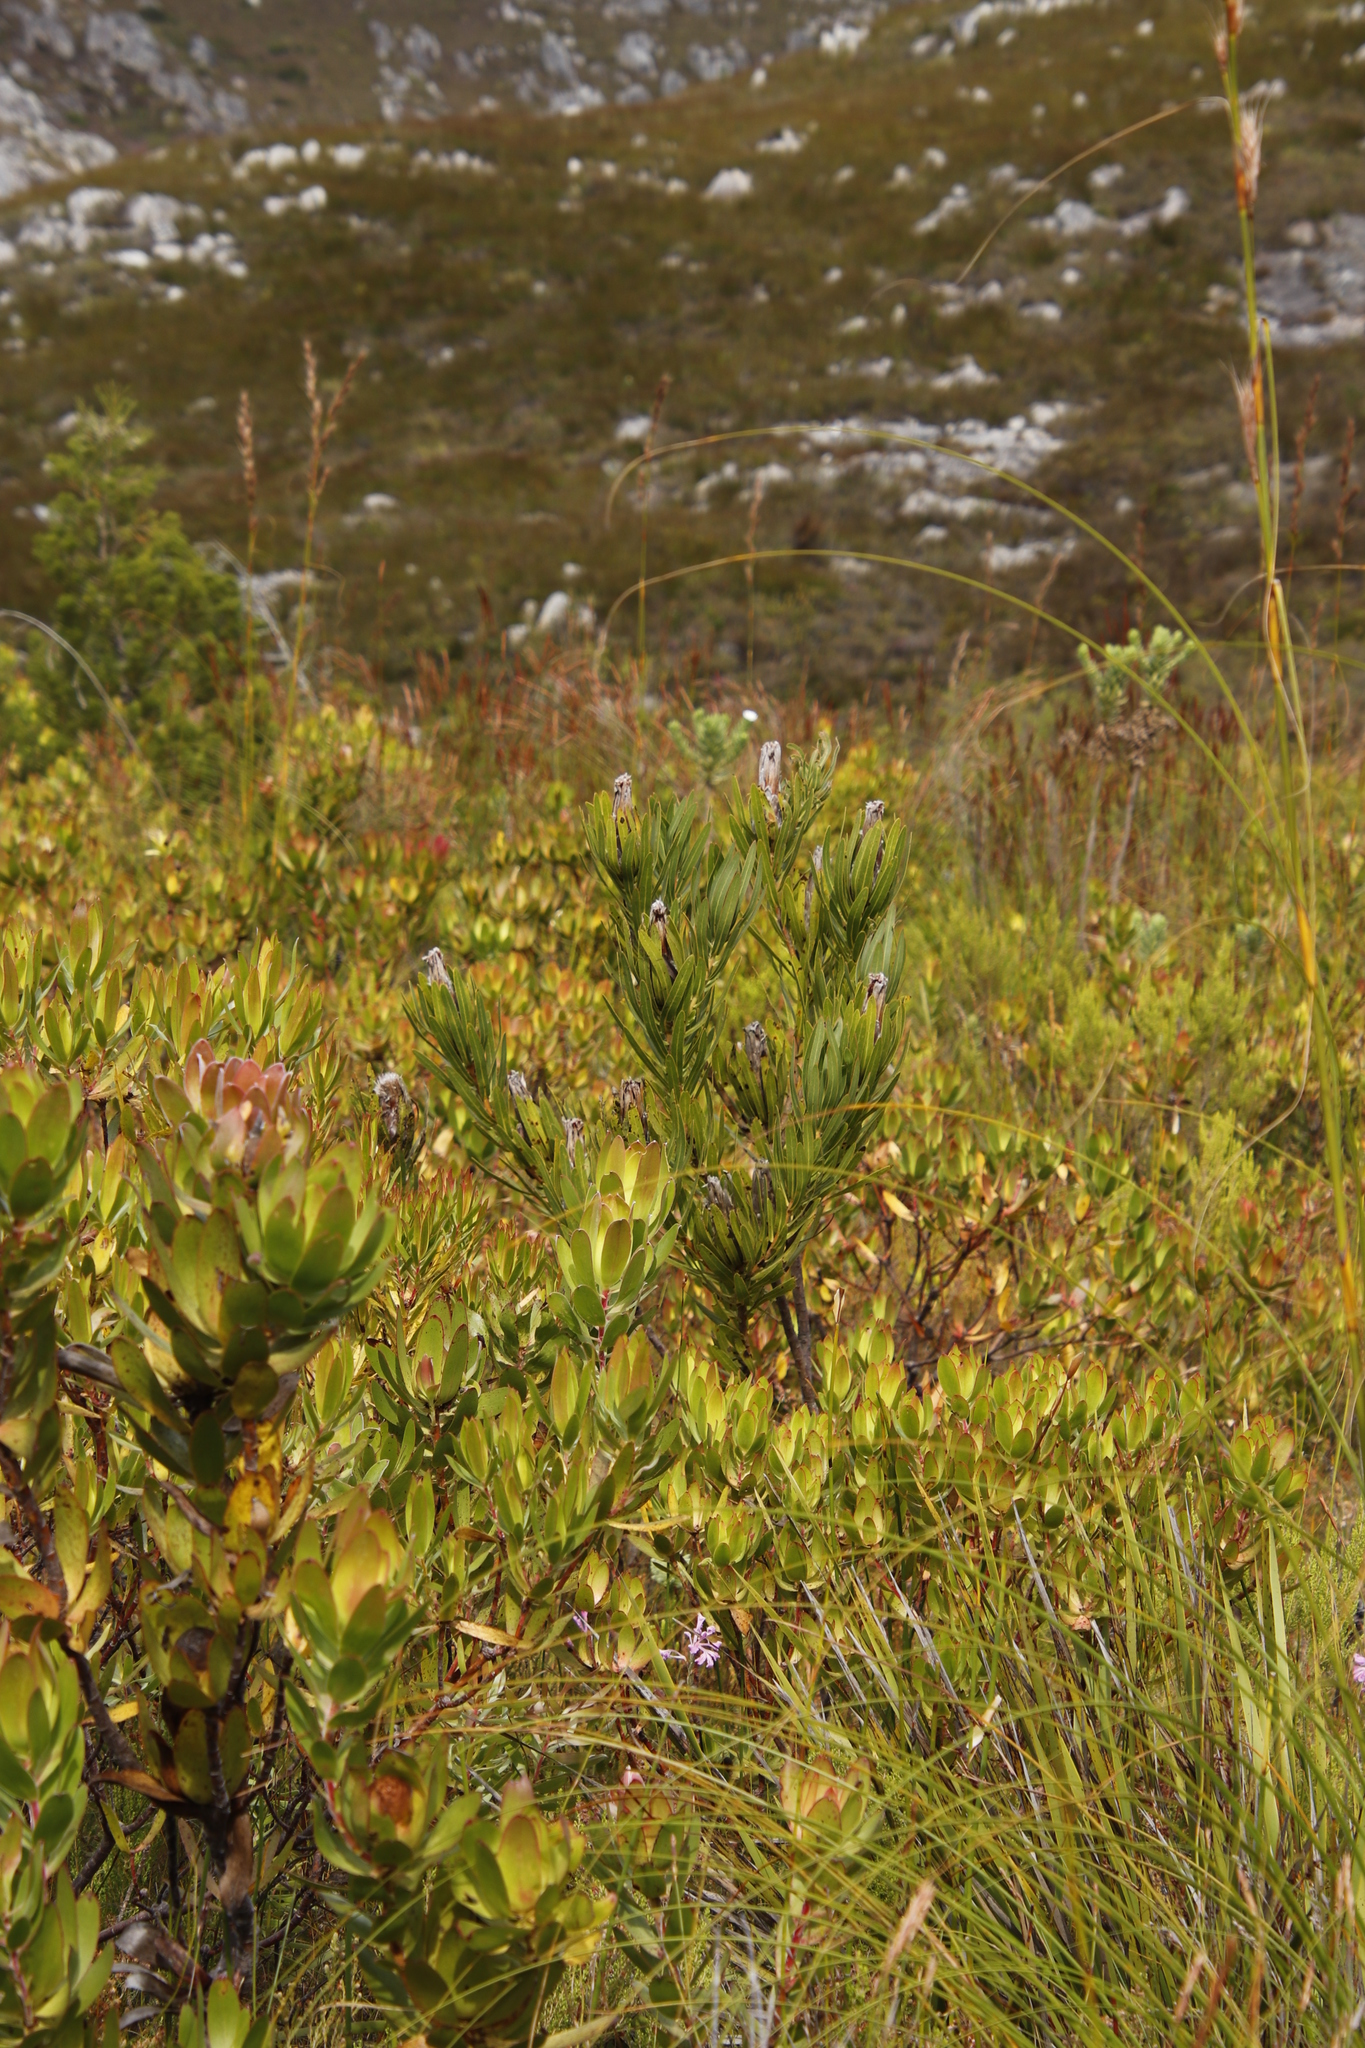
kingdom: Plantae
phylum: Tracheophyta
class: Magnoliopsida
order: Proteales
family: Proteaceae
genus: Protea
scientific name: Protea lepidocarpodendron
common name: Black-bearded protea
